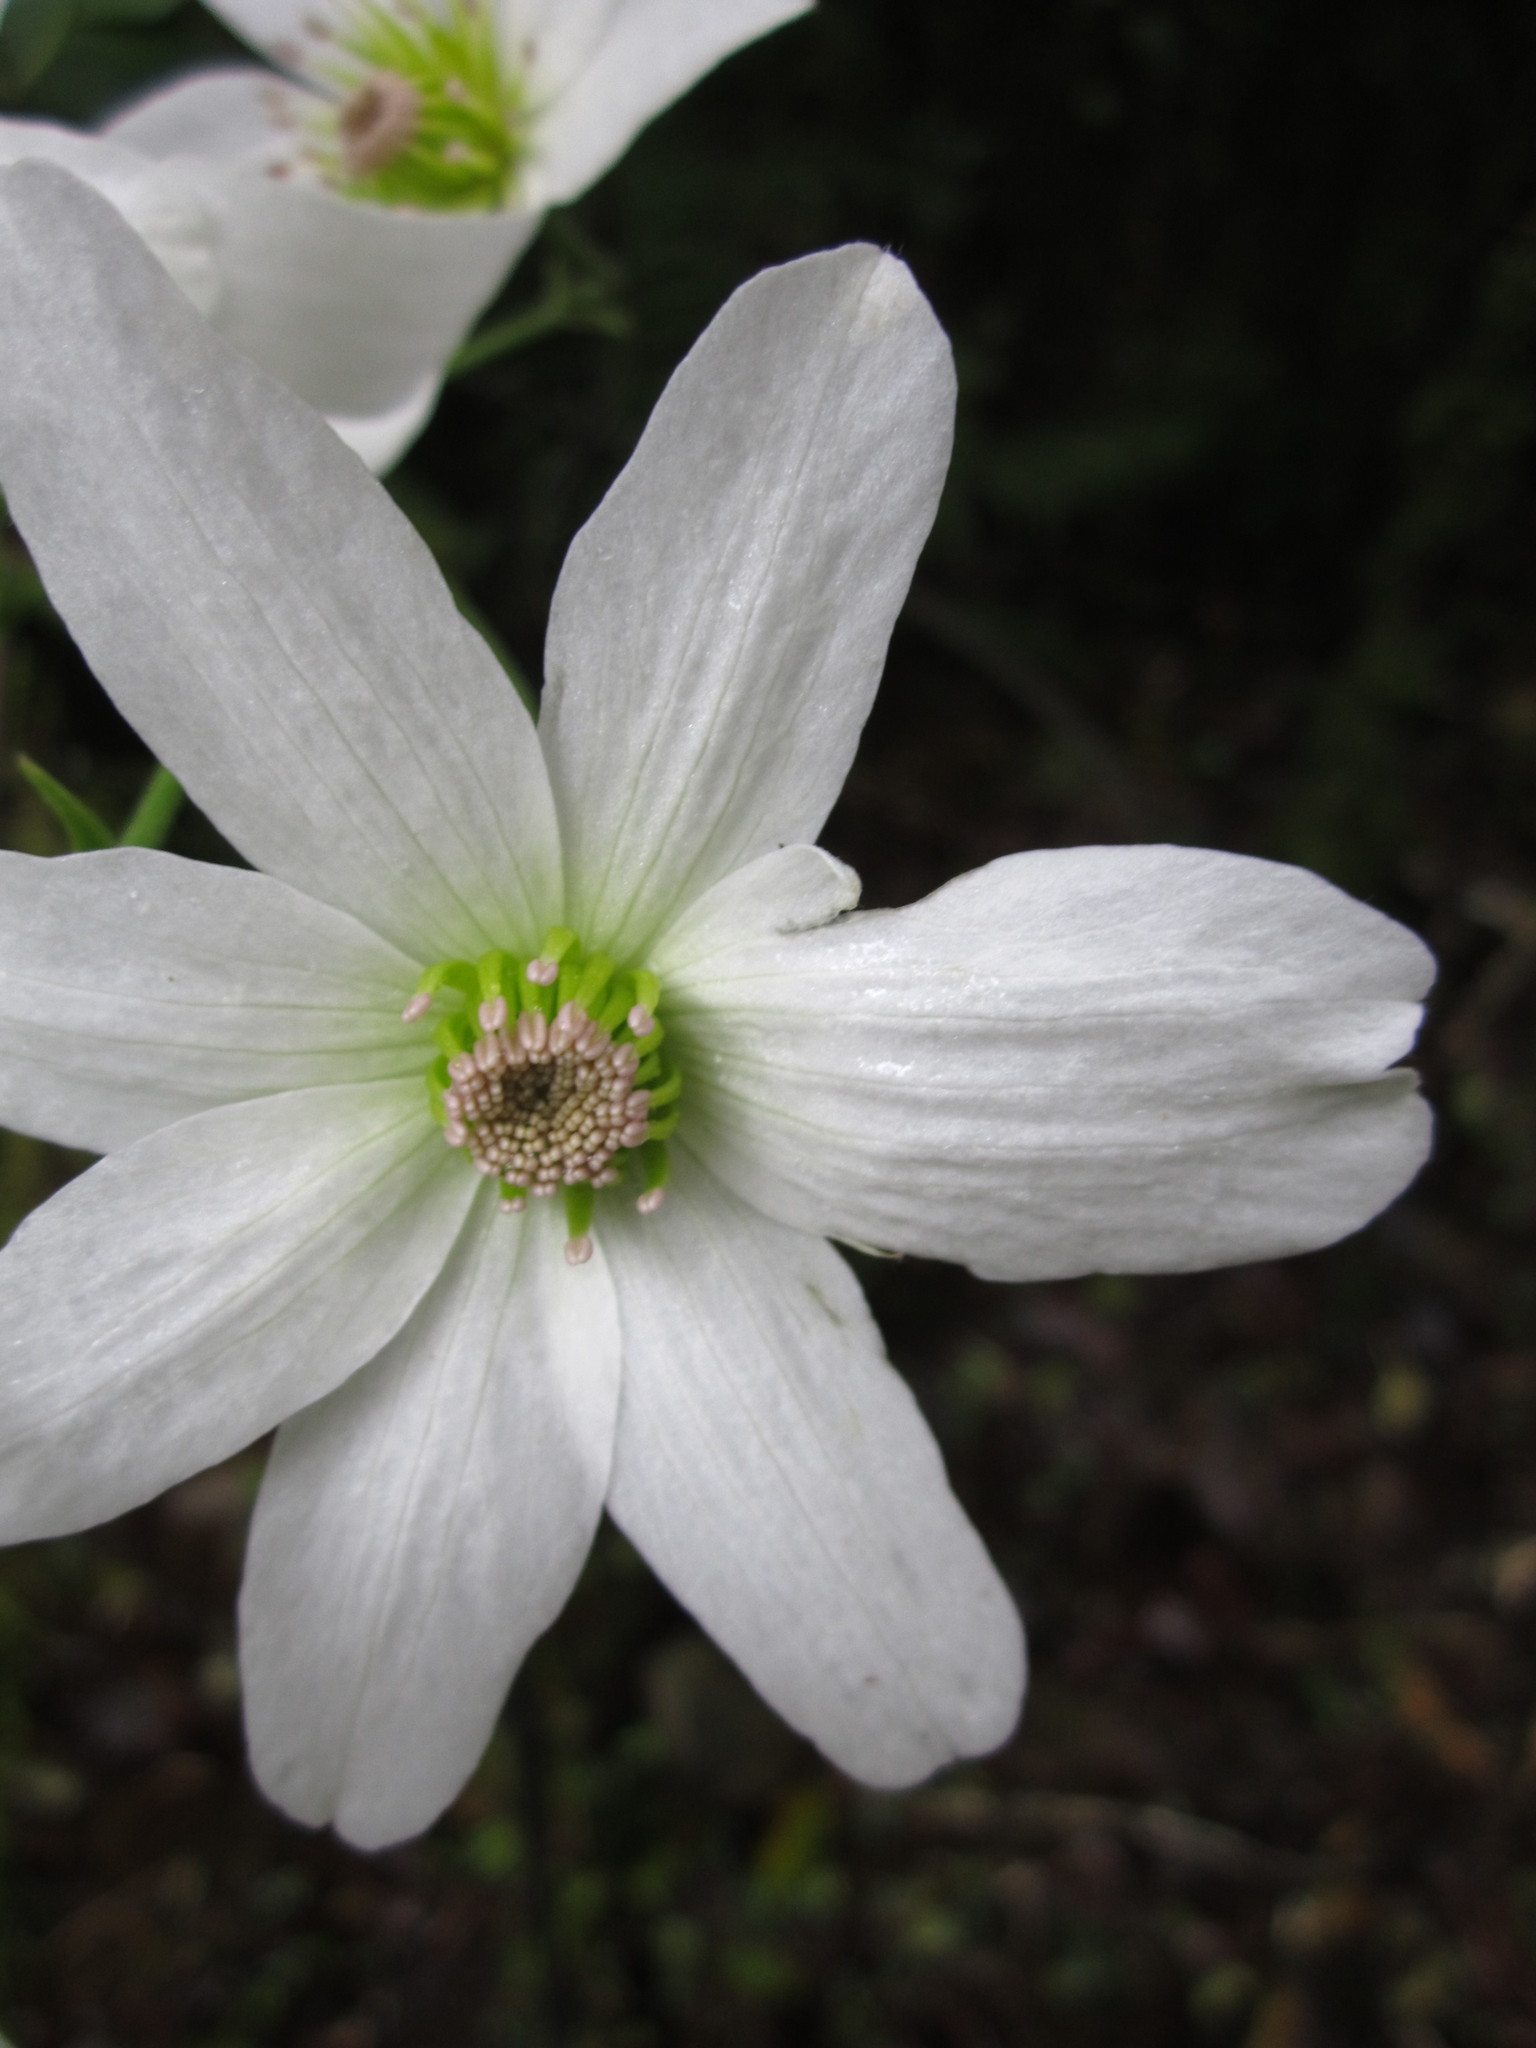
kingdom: Plantae
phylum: Tracheophyta
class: Magnoliopsida
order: Ranunculales
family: Ranunculaceae
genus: Clematis
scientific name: Clematis paniculata
